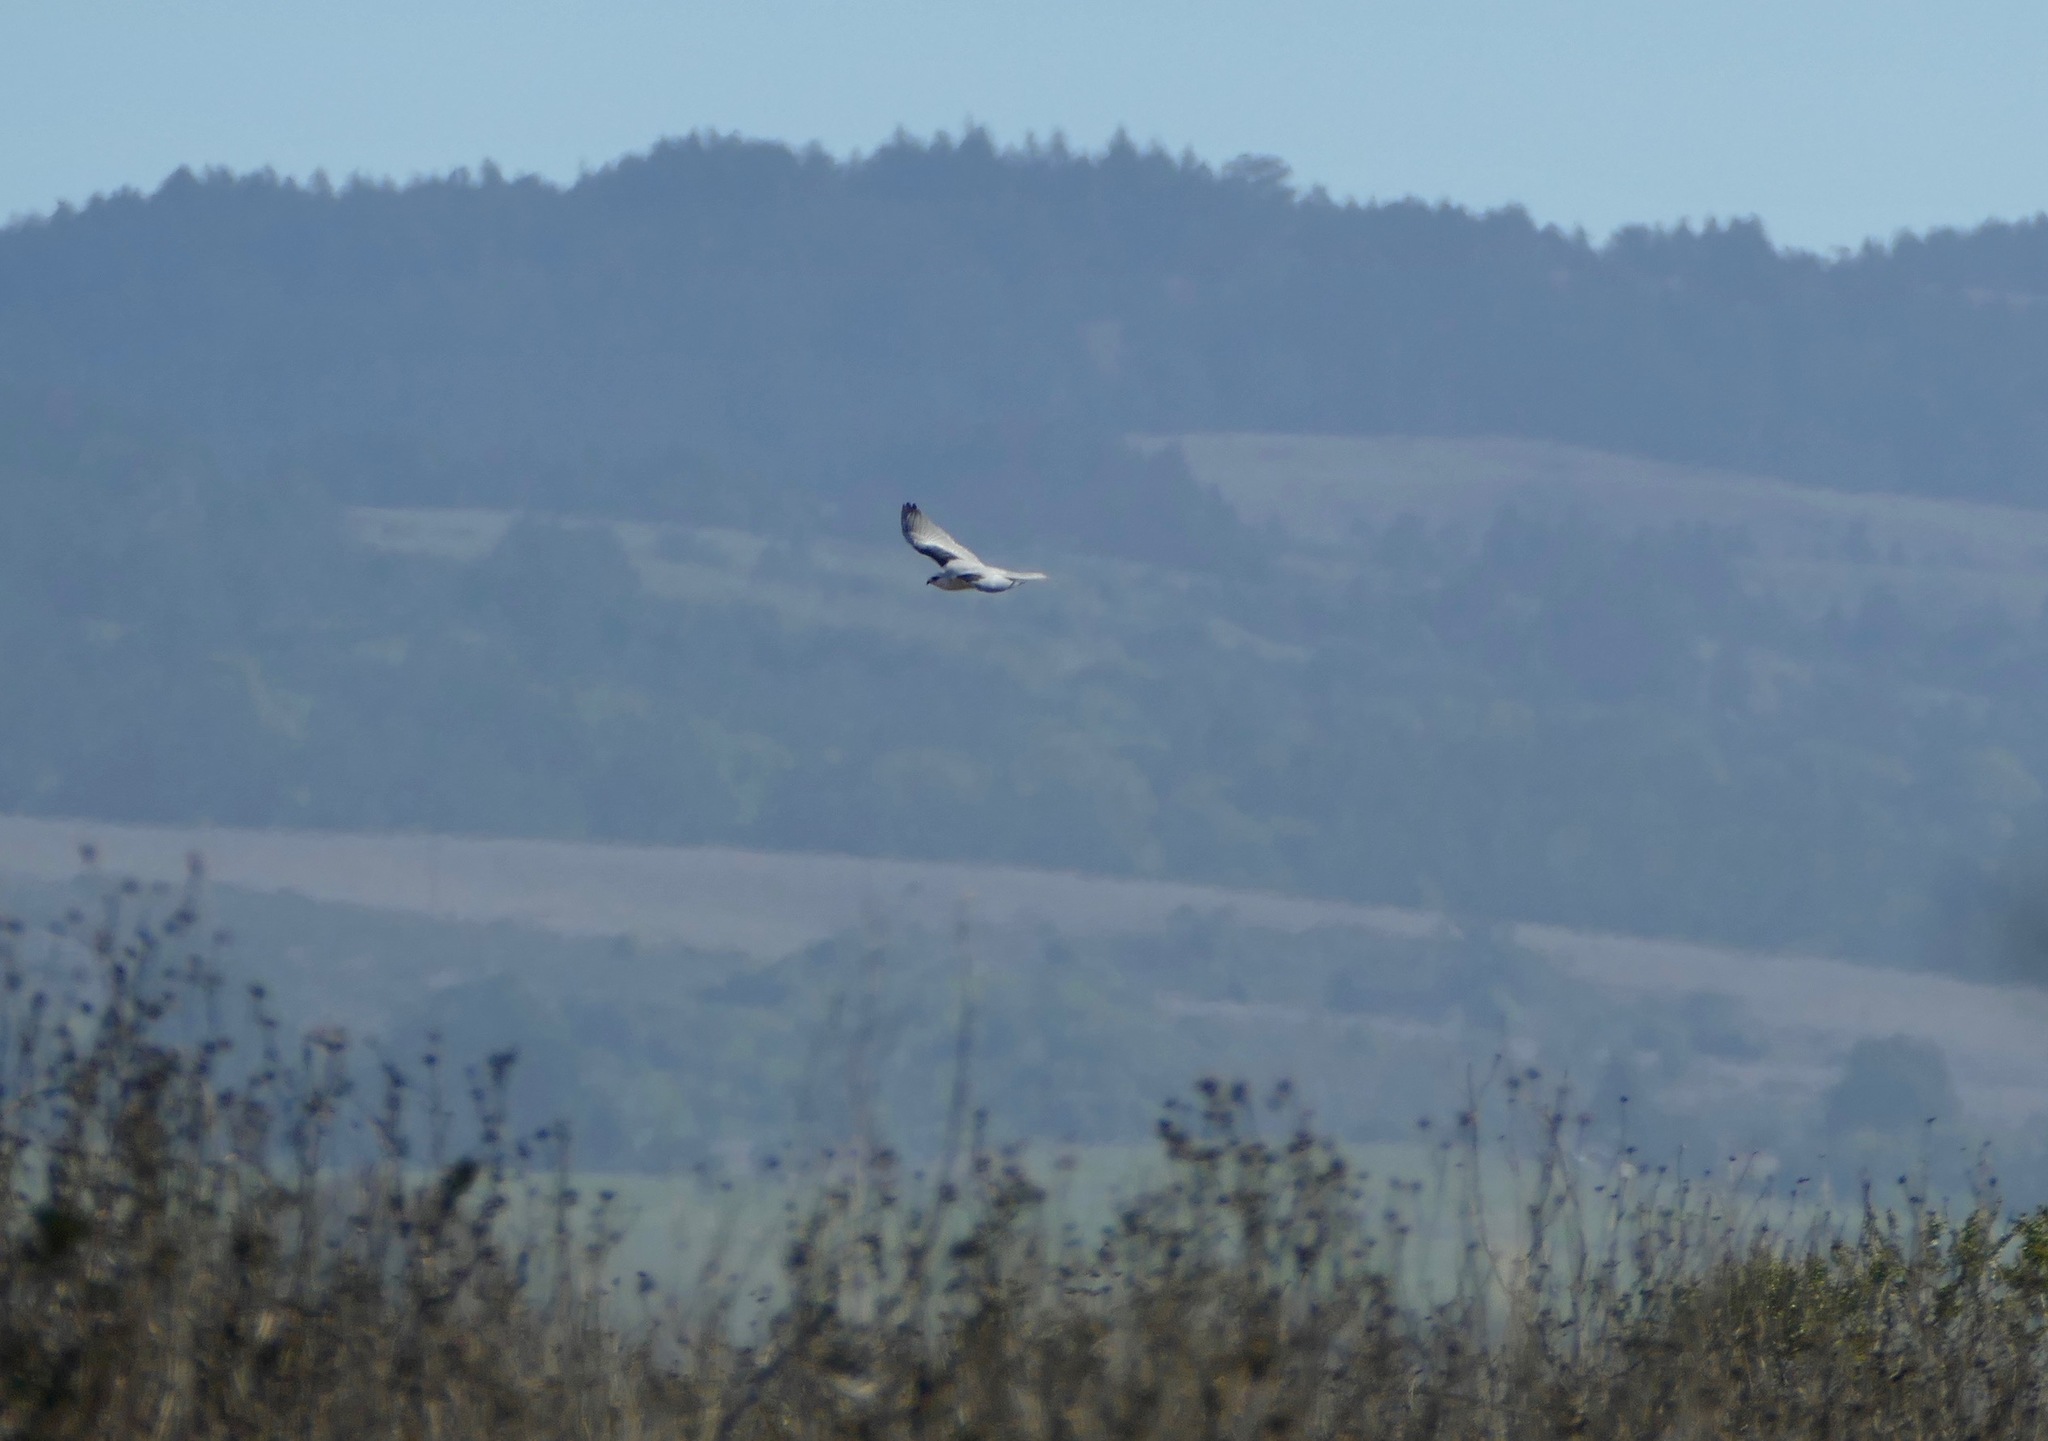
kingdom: Animalia
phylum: Chordata
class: Aves
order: Accipitriformes
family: Accipitridae
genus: Elanus
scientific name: Elanus leucurus
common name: White-tailed kite
